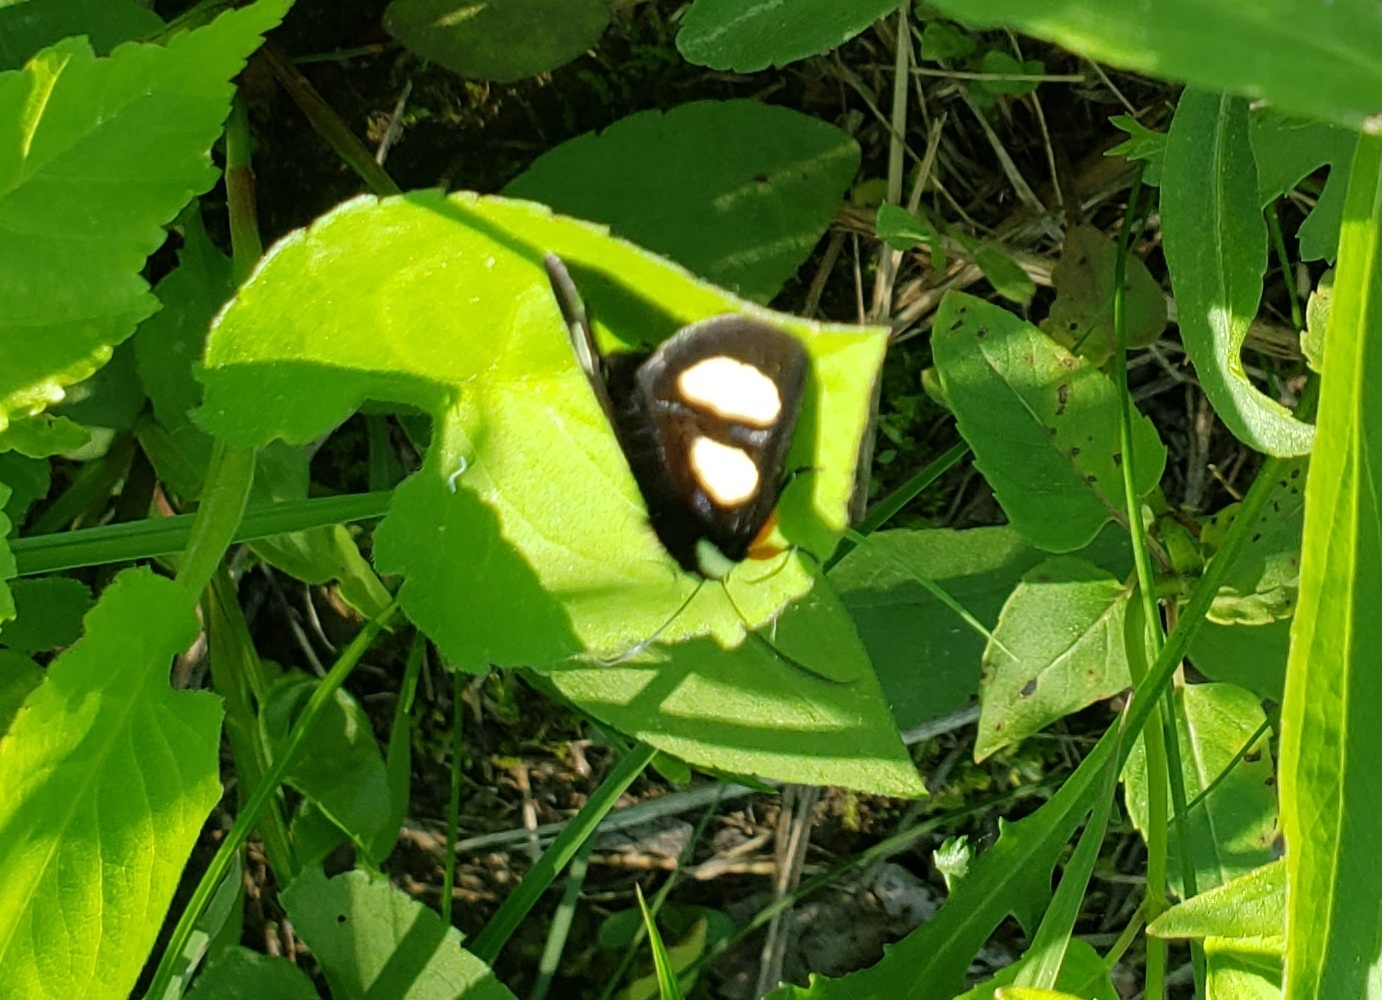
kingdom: Animalia
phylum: Arthropoda
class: Insecta
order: Lepidoptera
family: Noctuidae
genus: Alypia
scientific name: Alypia octomaculata
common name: Eight-spotted forester
